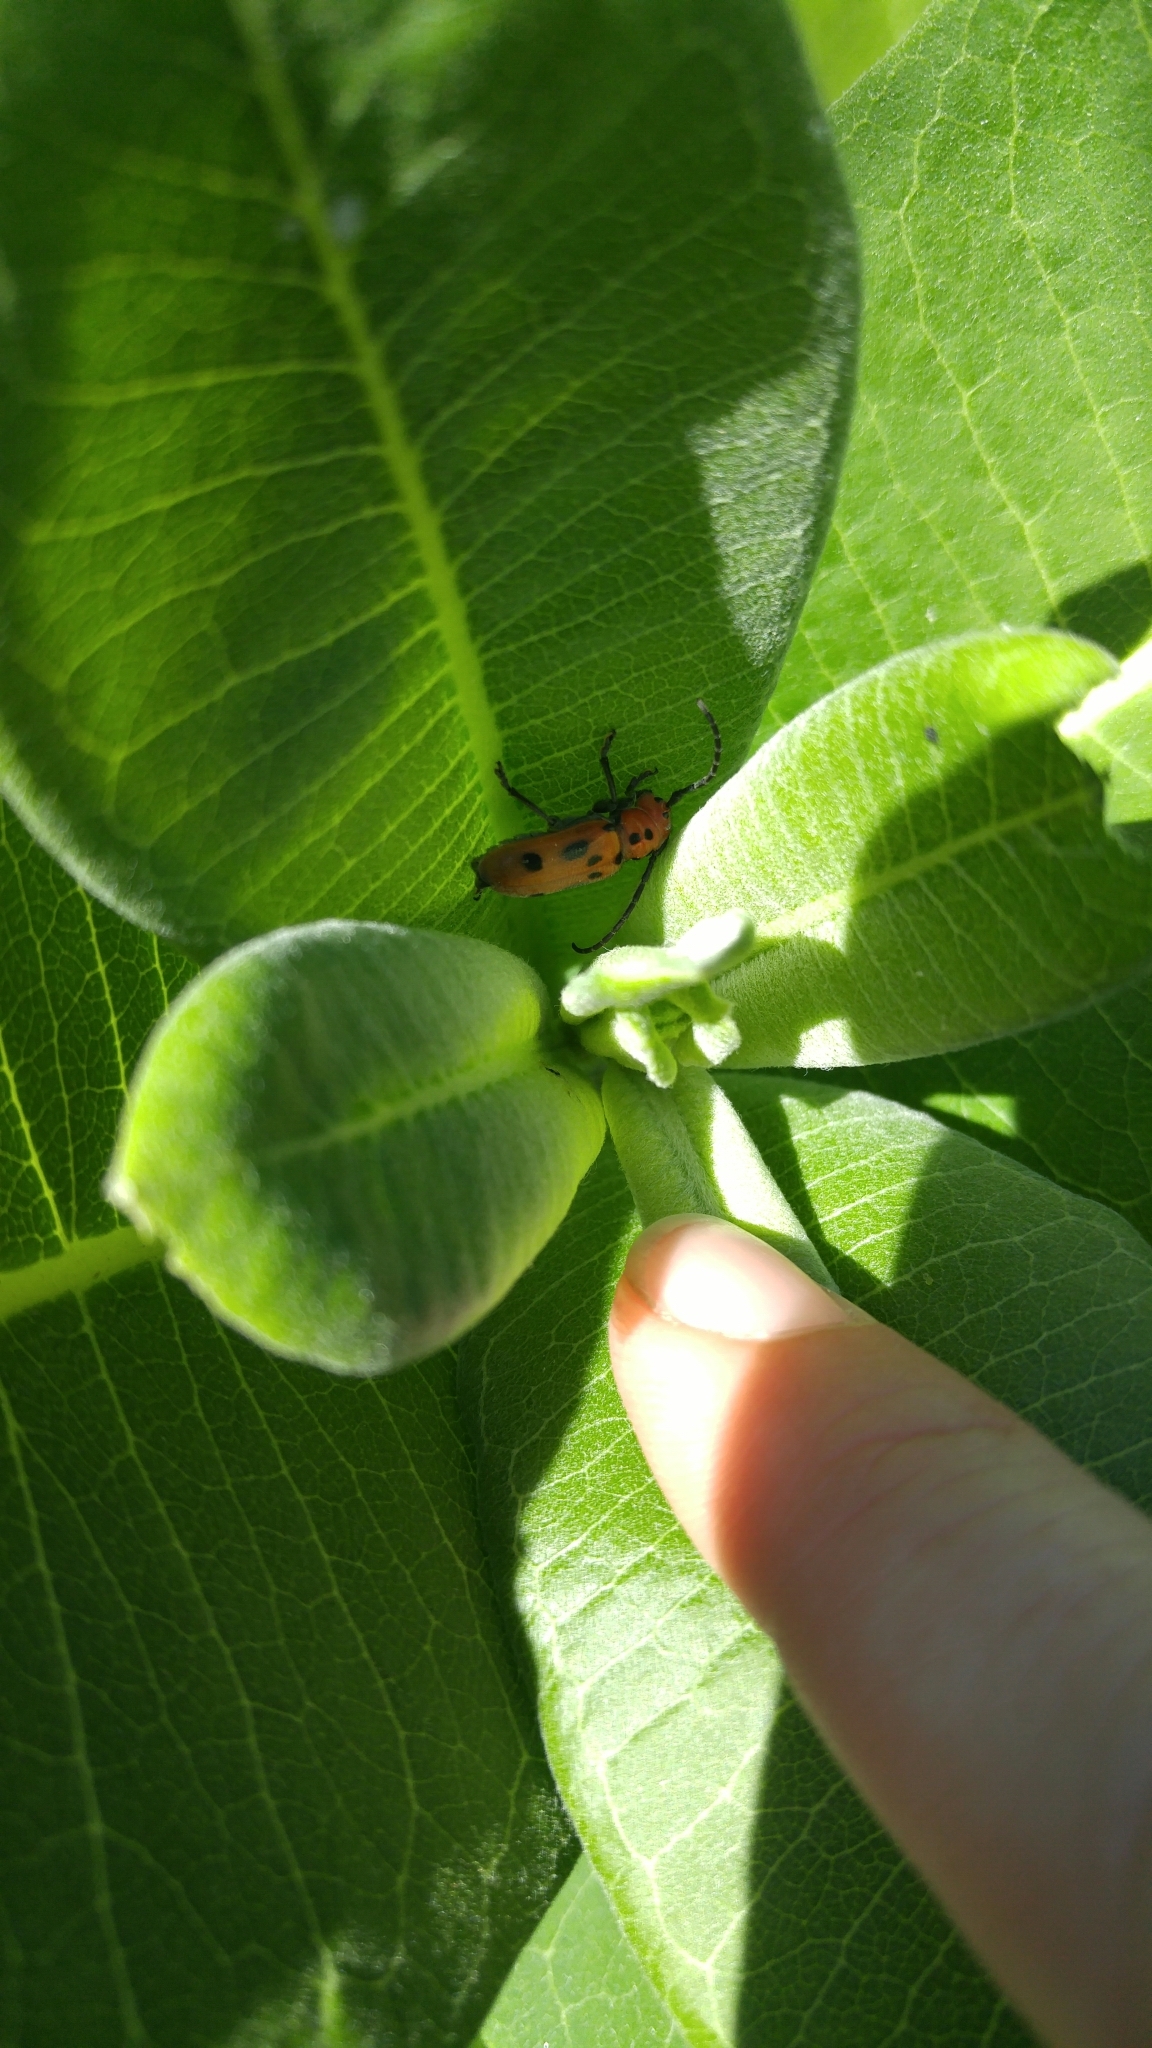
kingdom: Animalia
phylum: Arthropoda
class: Insecta
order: Coleoptera
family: Cerambycidae
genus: Tetraopes
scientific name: Tetraopes tetrophthalmus
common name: Red milkweed beetle
